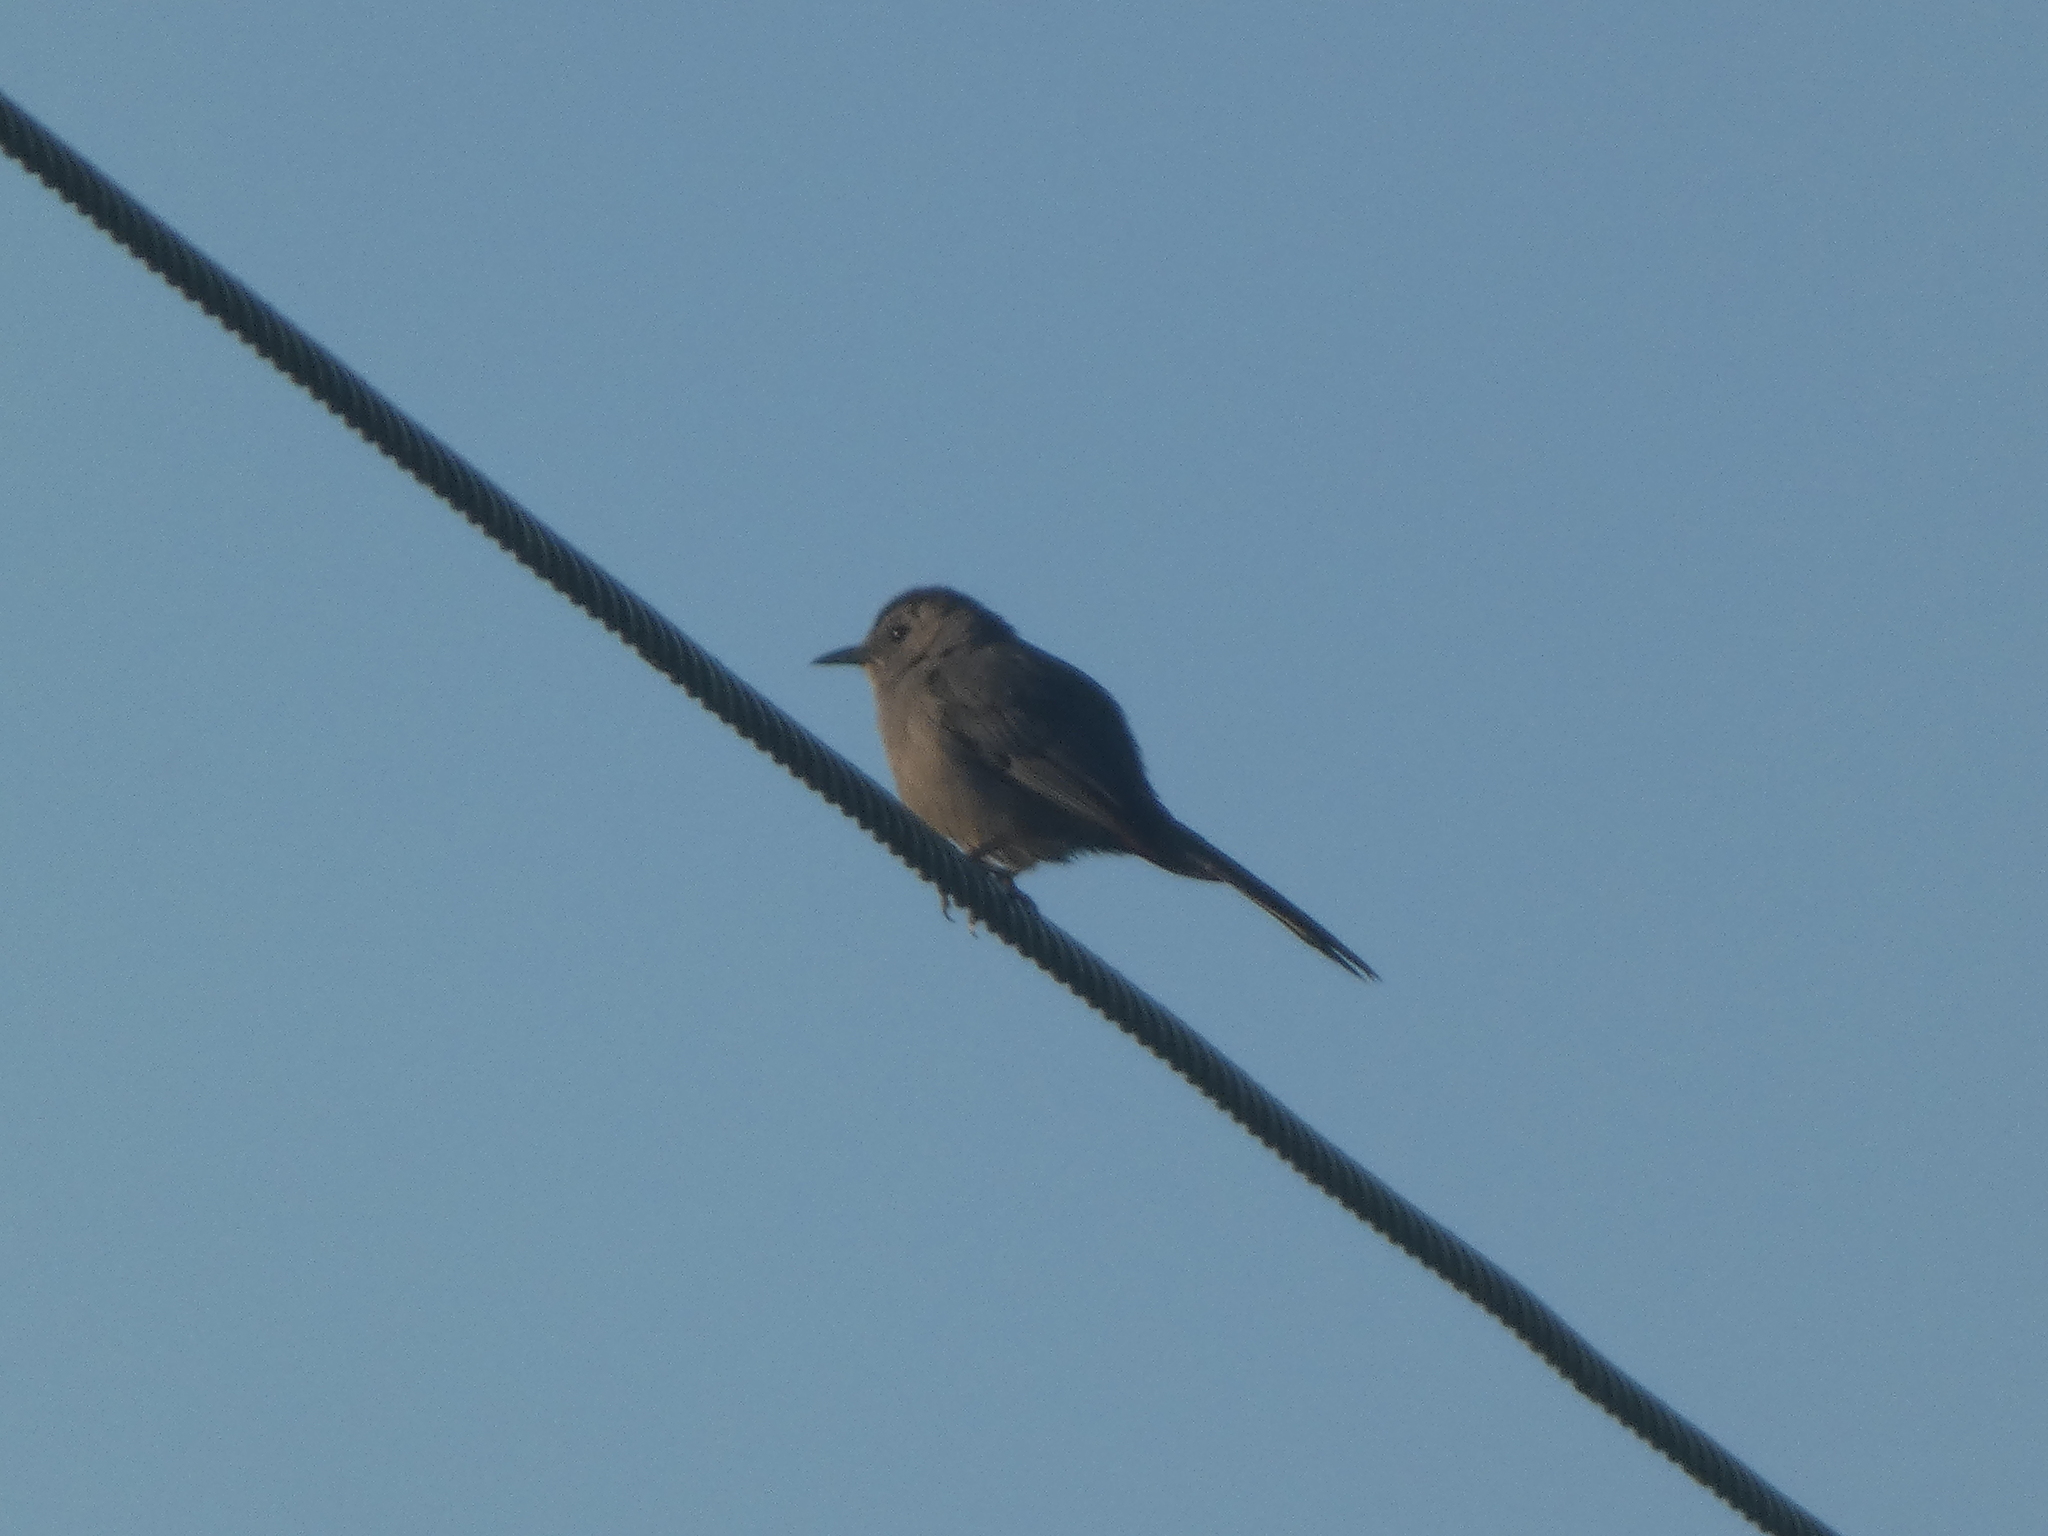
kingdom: Animalia
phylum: Chordata
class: Aves
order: Passeriformes
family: Mimidae
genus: Dumetella
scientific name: Dumetella carolinensis
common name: Gray catbird
